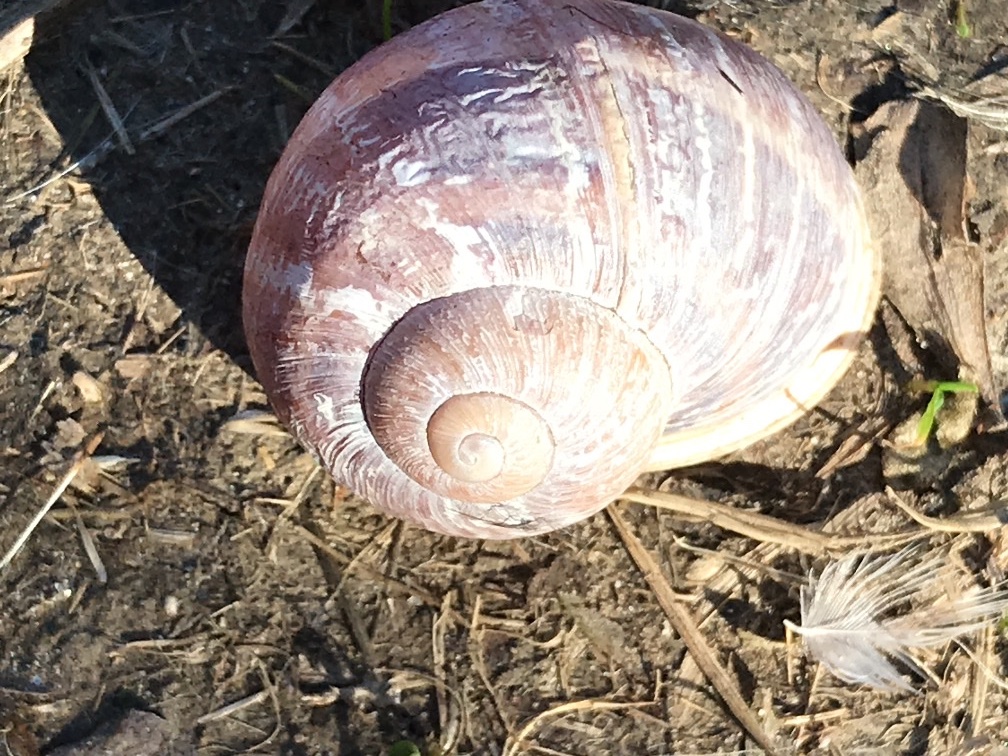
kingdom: Animalia
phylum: Mollusca
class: Gastropoda
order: Stylommatophora
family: Helicidae
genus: Cornu
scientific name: Cornu aspersum
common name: Brown garden snail
